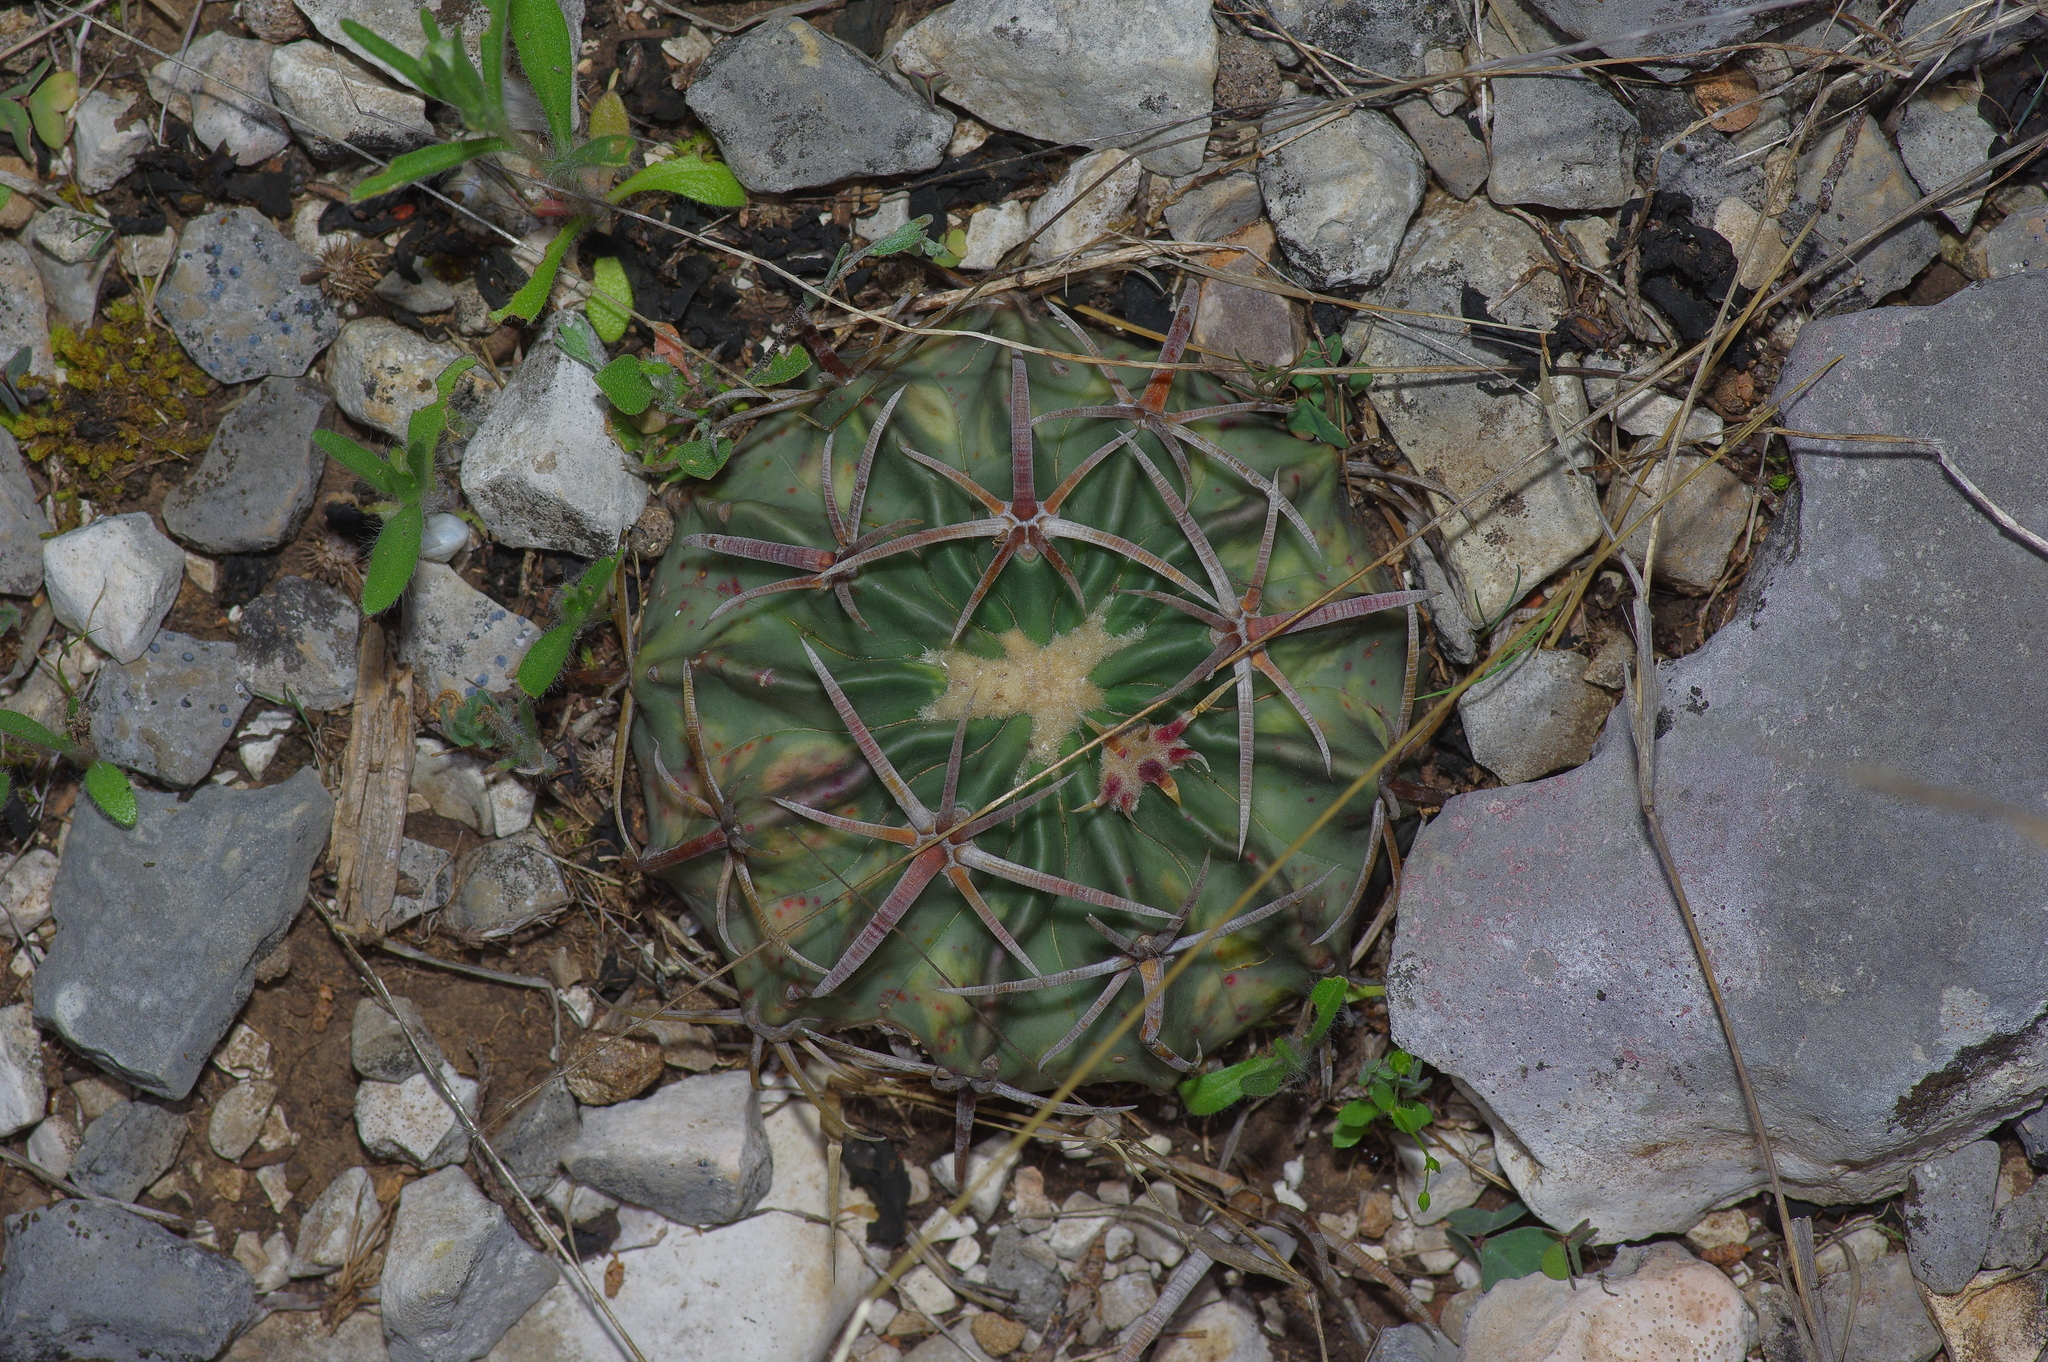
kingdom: Plantae
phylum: Tracheophyta
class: Magnoliopsida
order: Caryophyllales
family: Cactaceae
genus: Echinocactus
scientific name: Echinocactus texensis
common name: Devil's pincushion
